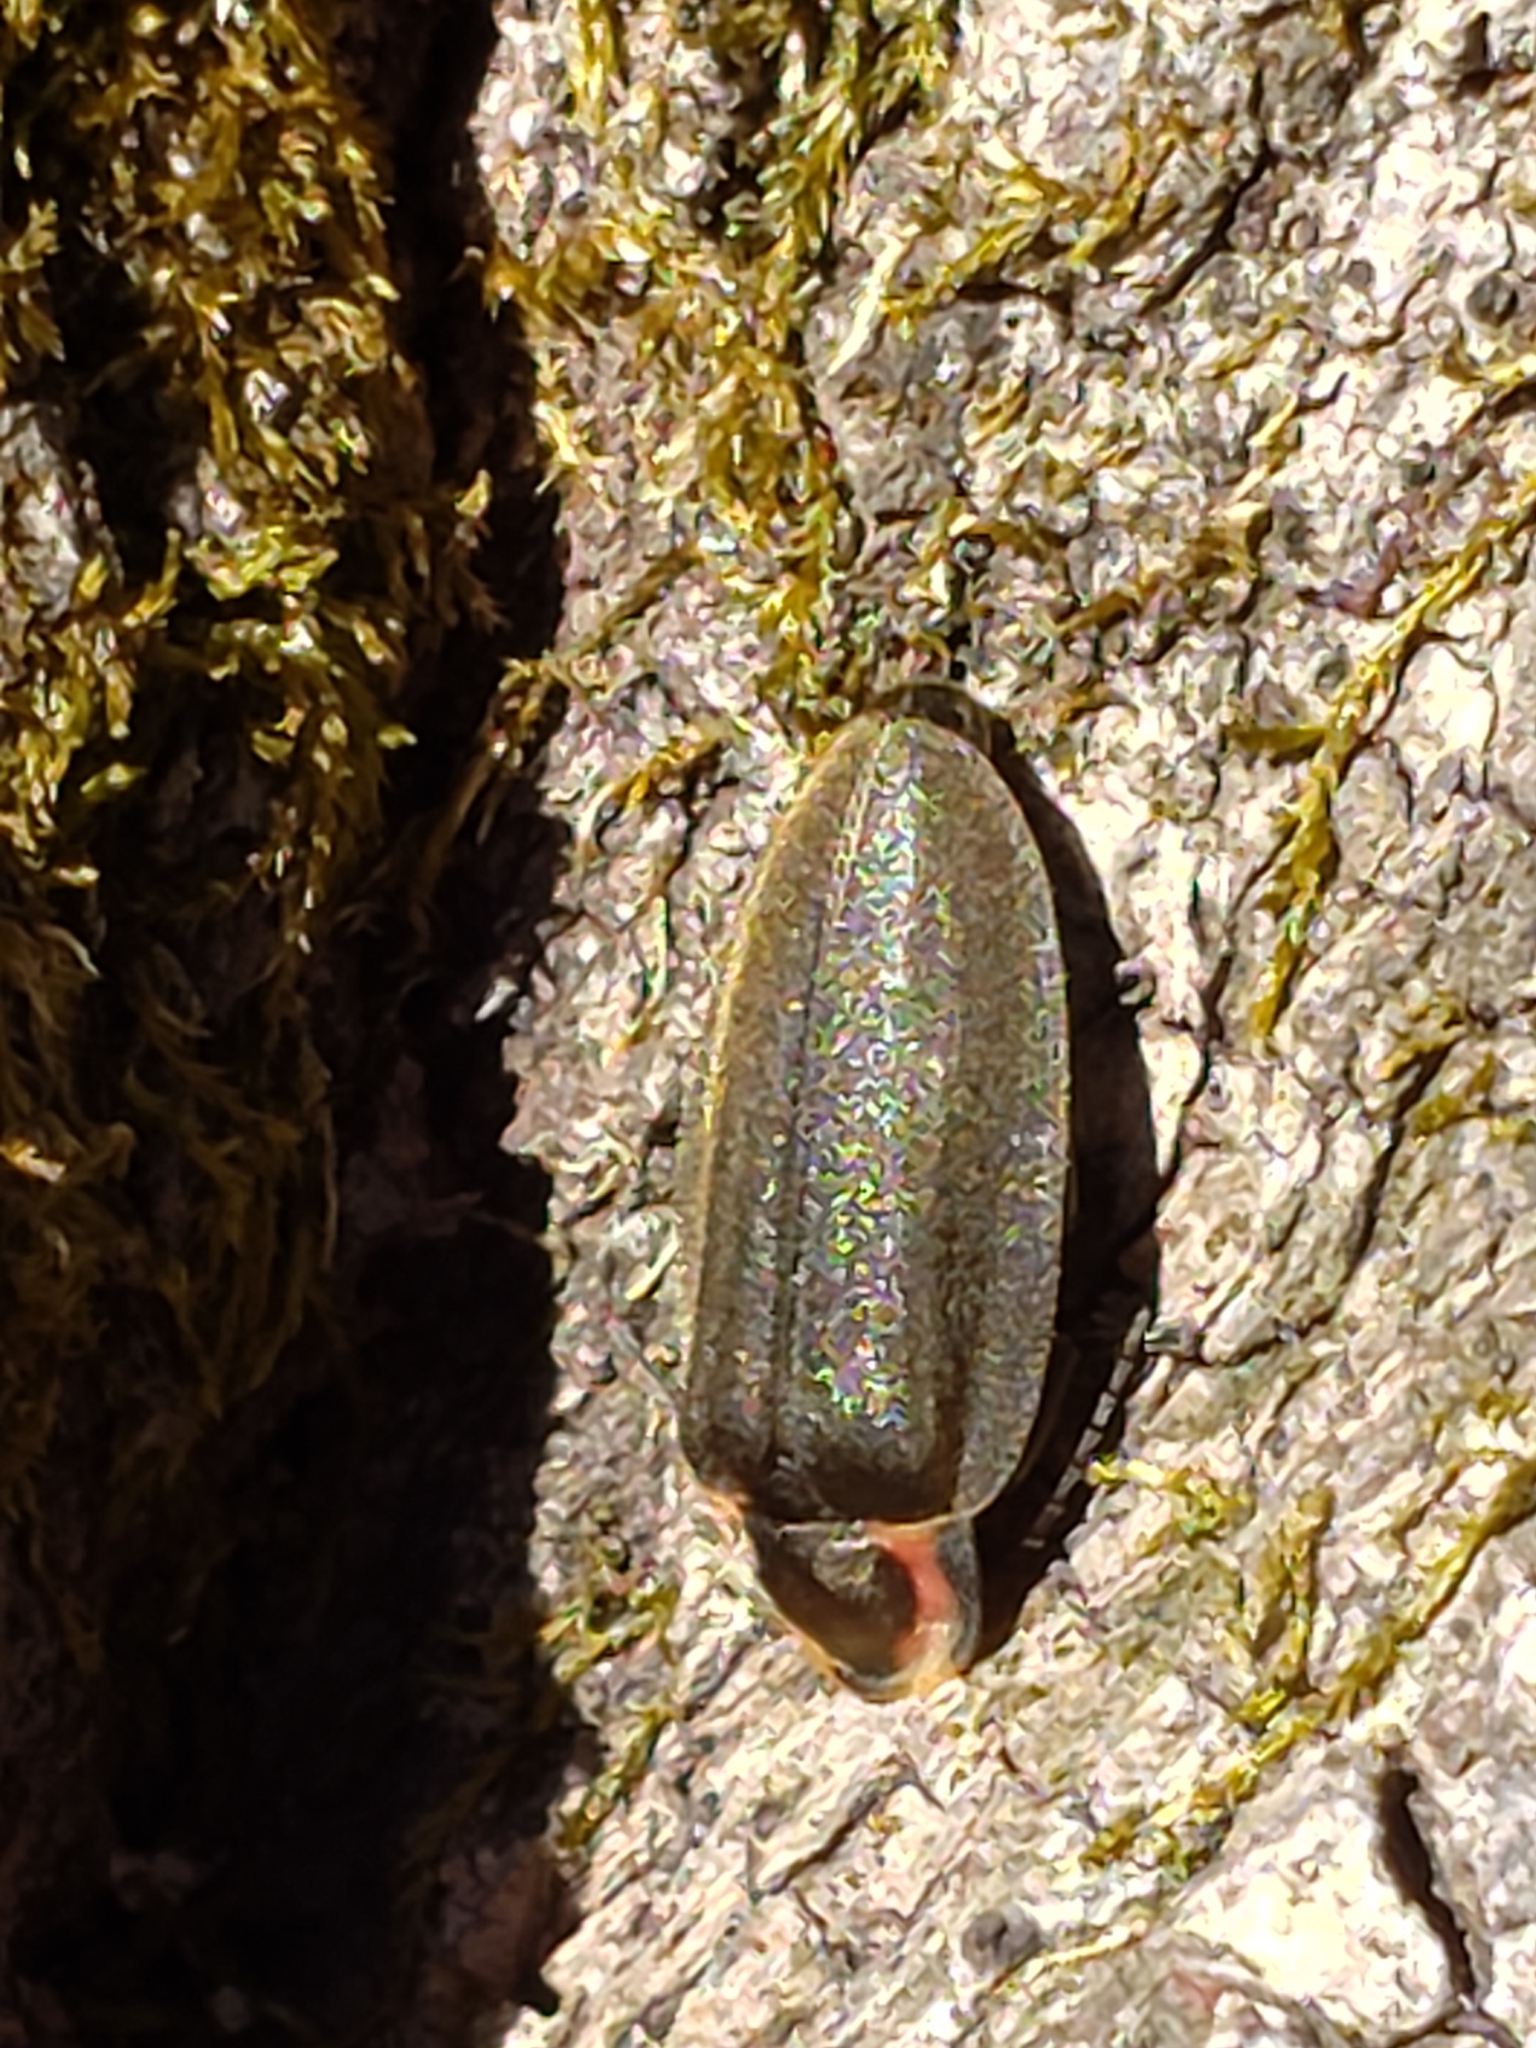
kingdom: Animalia
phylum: Arthropoda
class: Insecta
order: Coleoptera
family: Lampyridae
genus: Photinus
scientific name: Photinus corrusca
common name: Winter firefly
